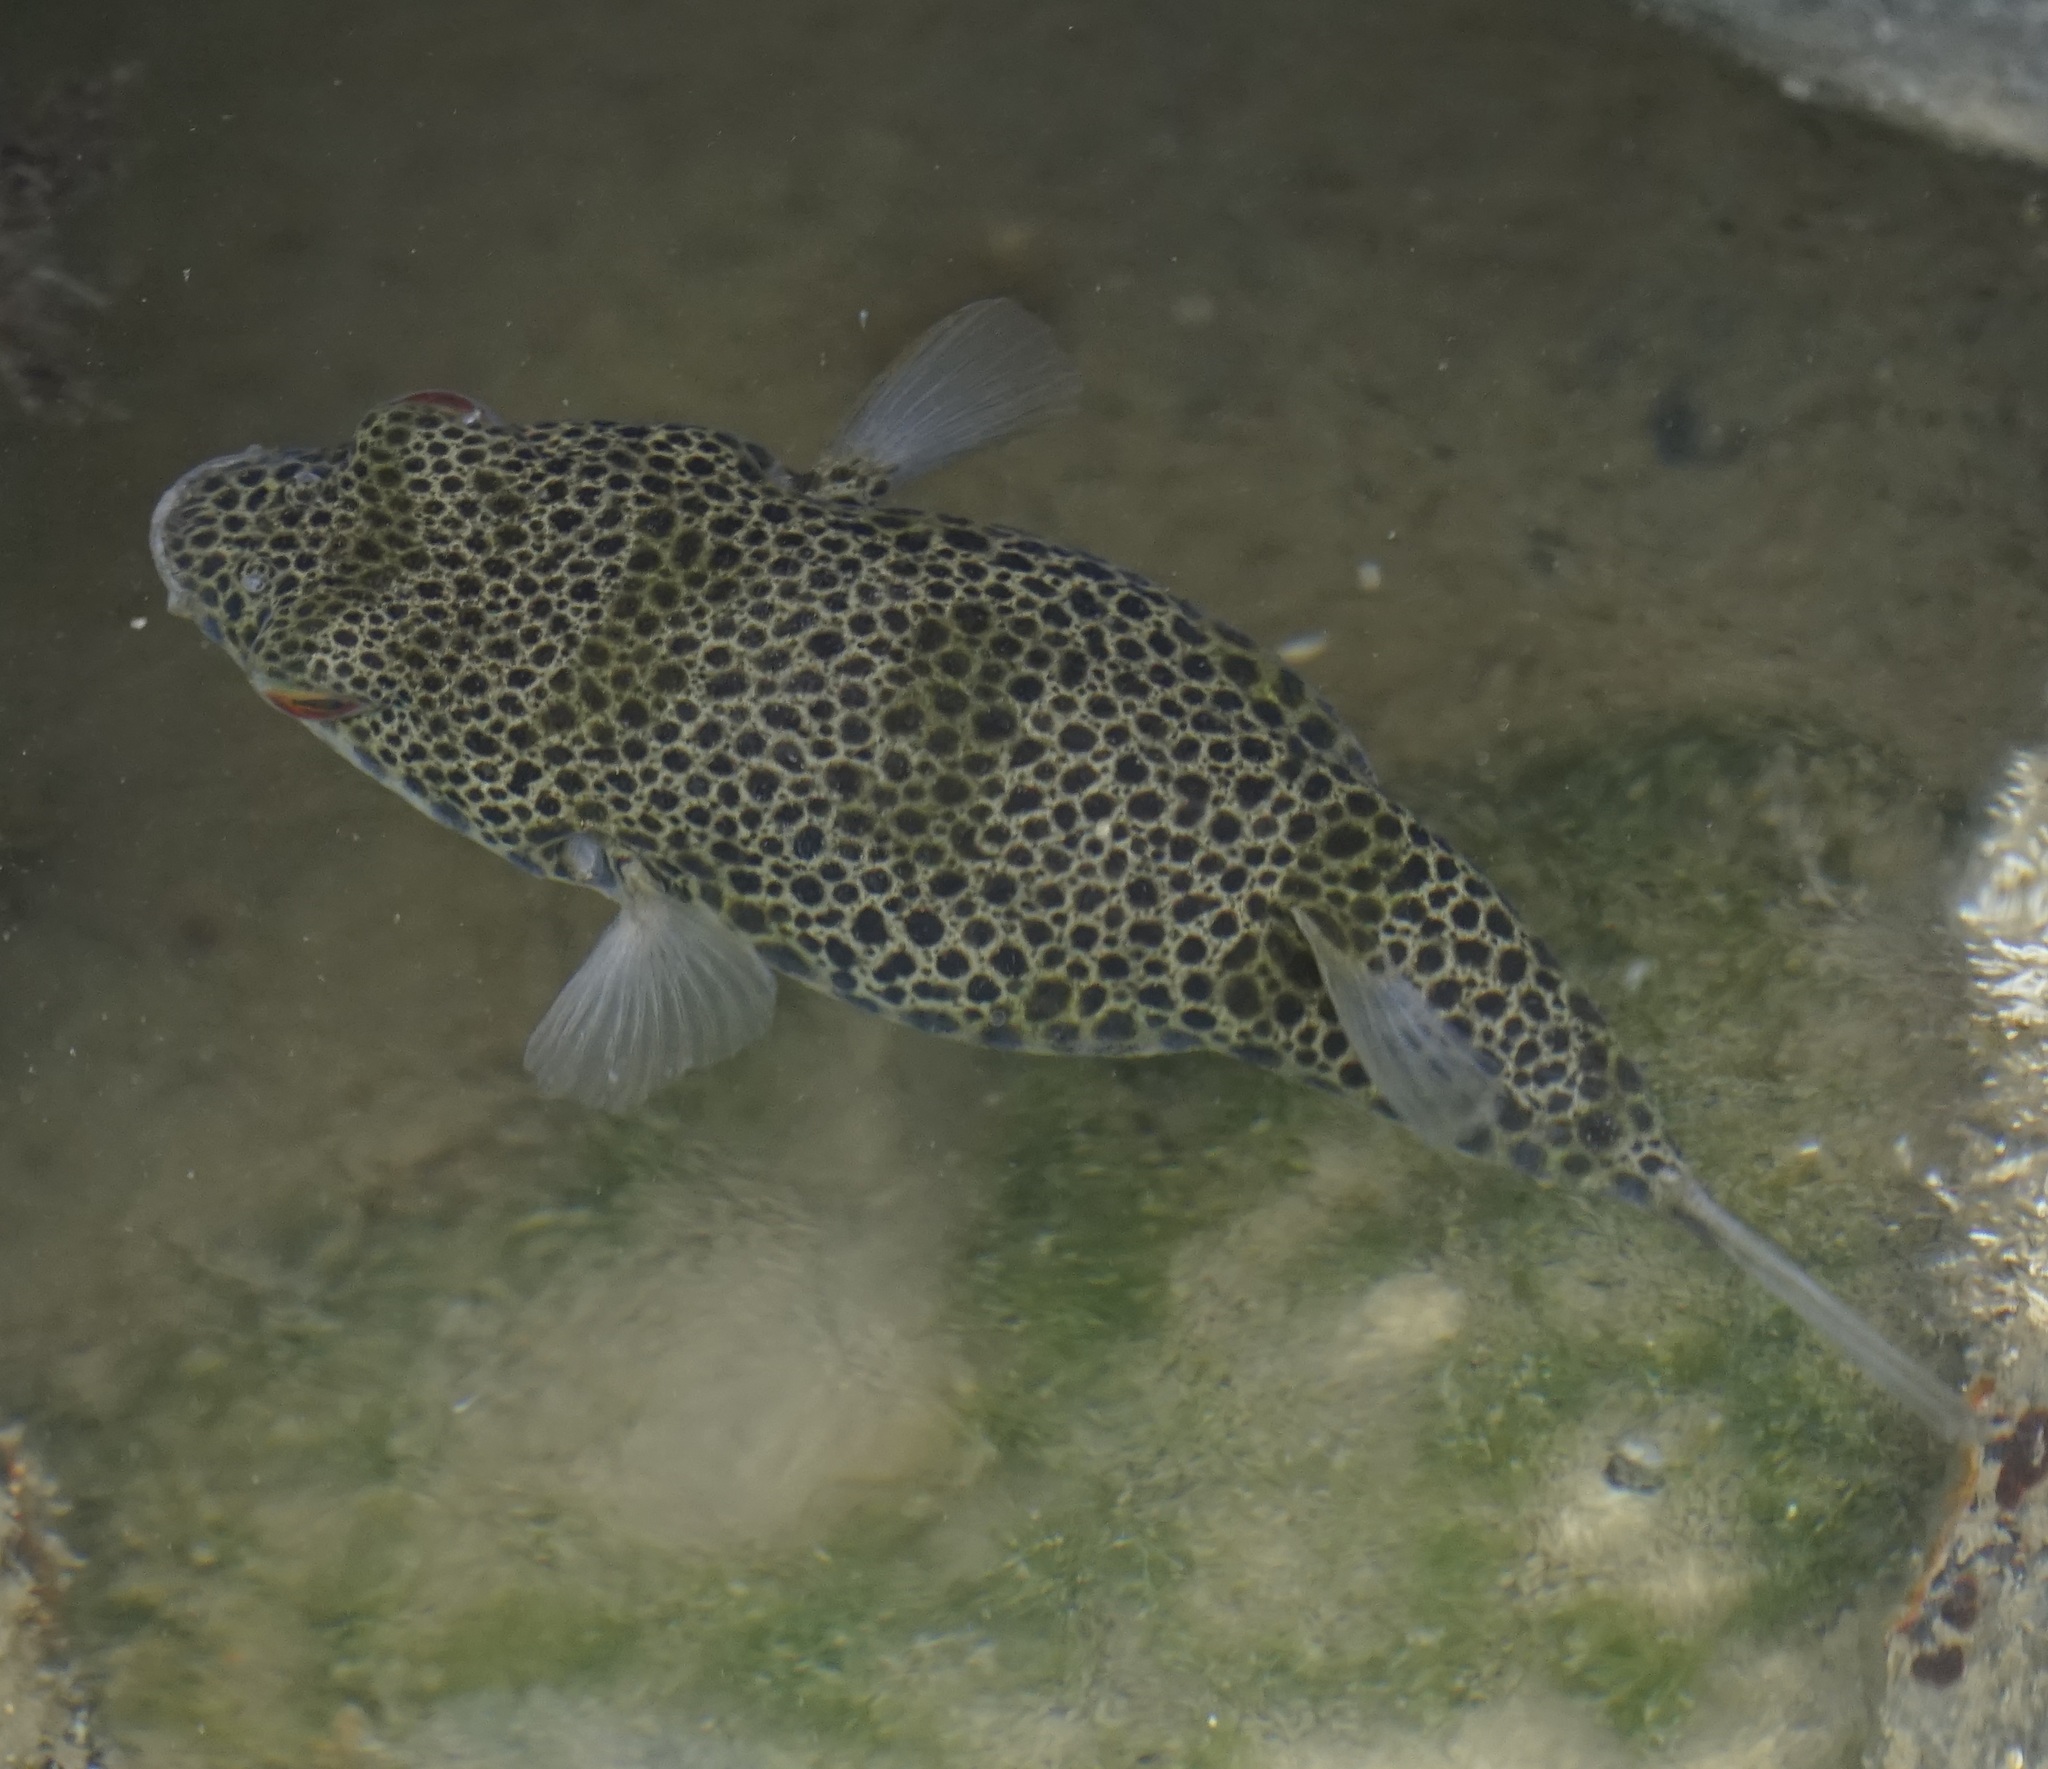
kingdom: Animalia
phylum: Chordata
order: Tetraodontiformes
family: Tetraodontidae
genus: Tetractenos
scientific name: Tetractenos hamiltoni
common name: Common toadfish
